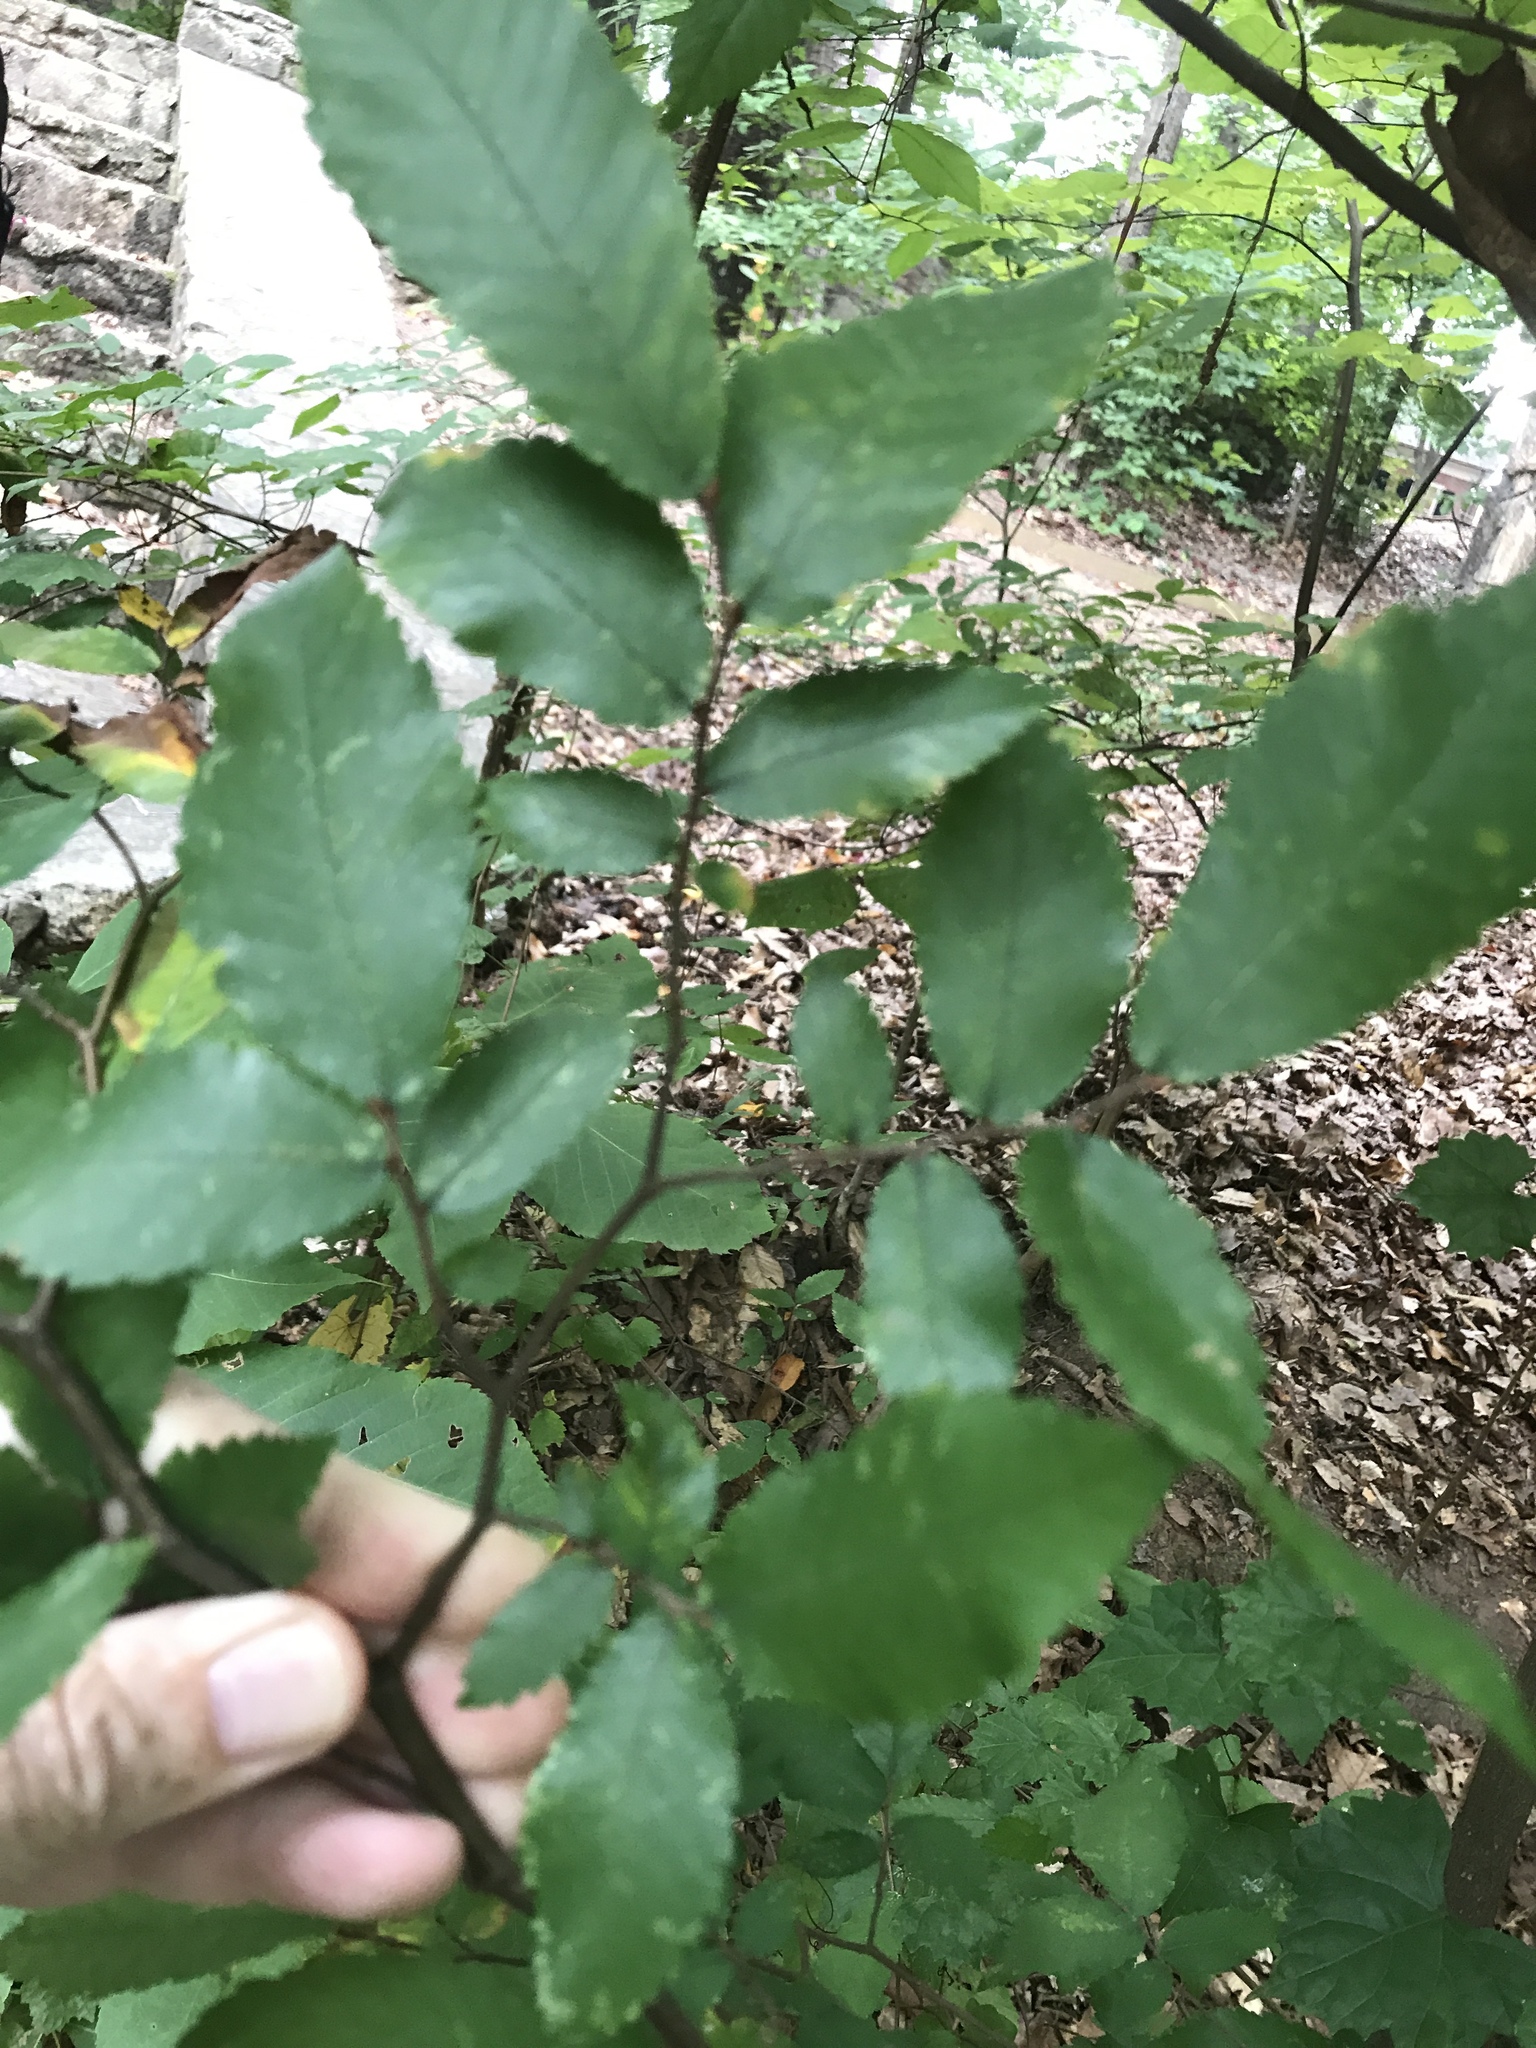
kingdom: Plantae
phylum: Tracheophyta
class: Magnoliopsida
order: Rosales
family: Ulmaceae
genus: Ulmus
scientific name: Ulmus alata
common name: Winged elm
